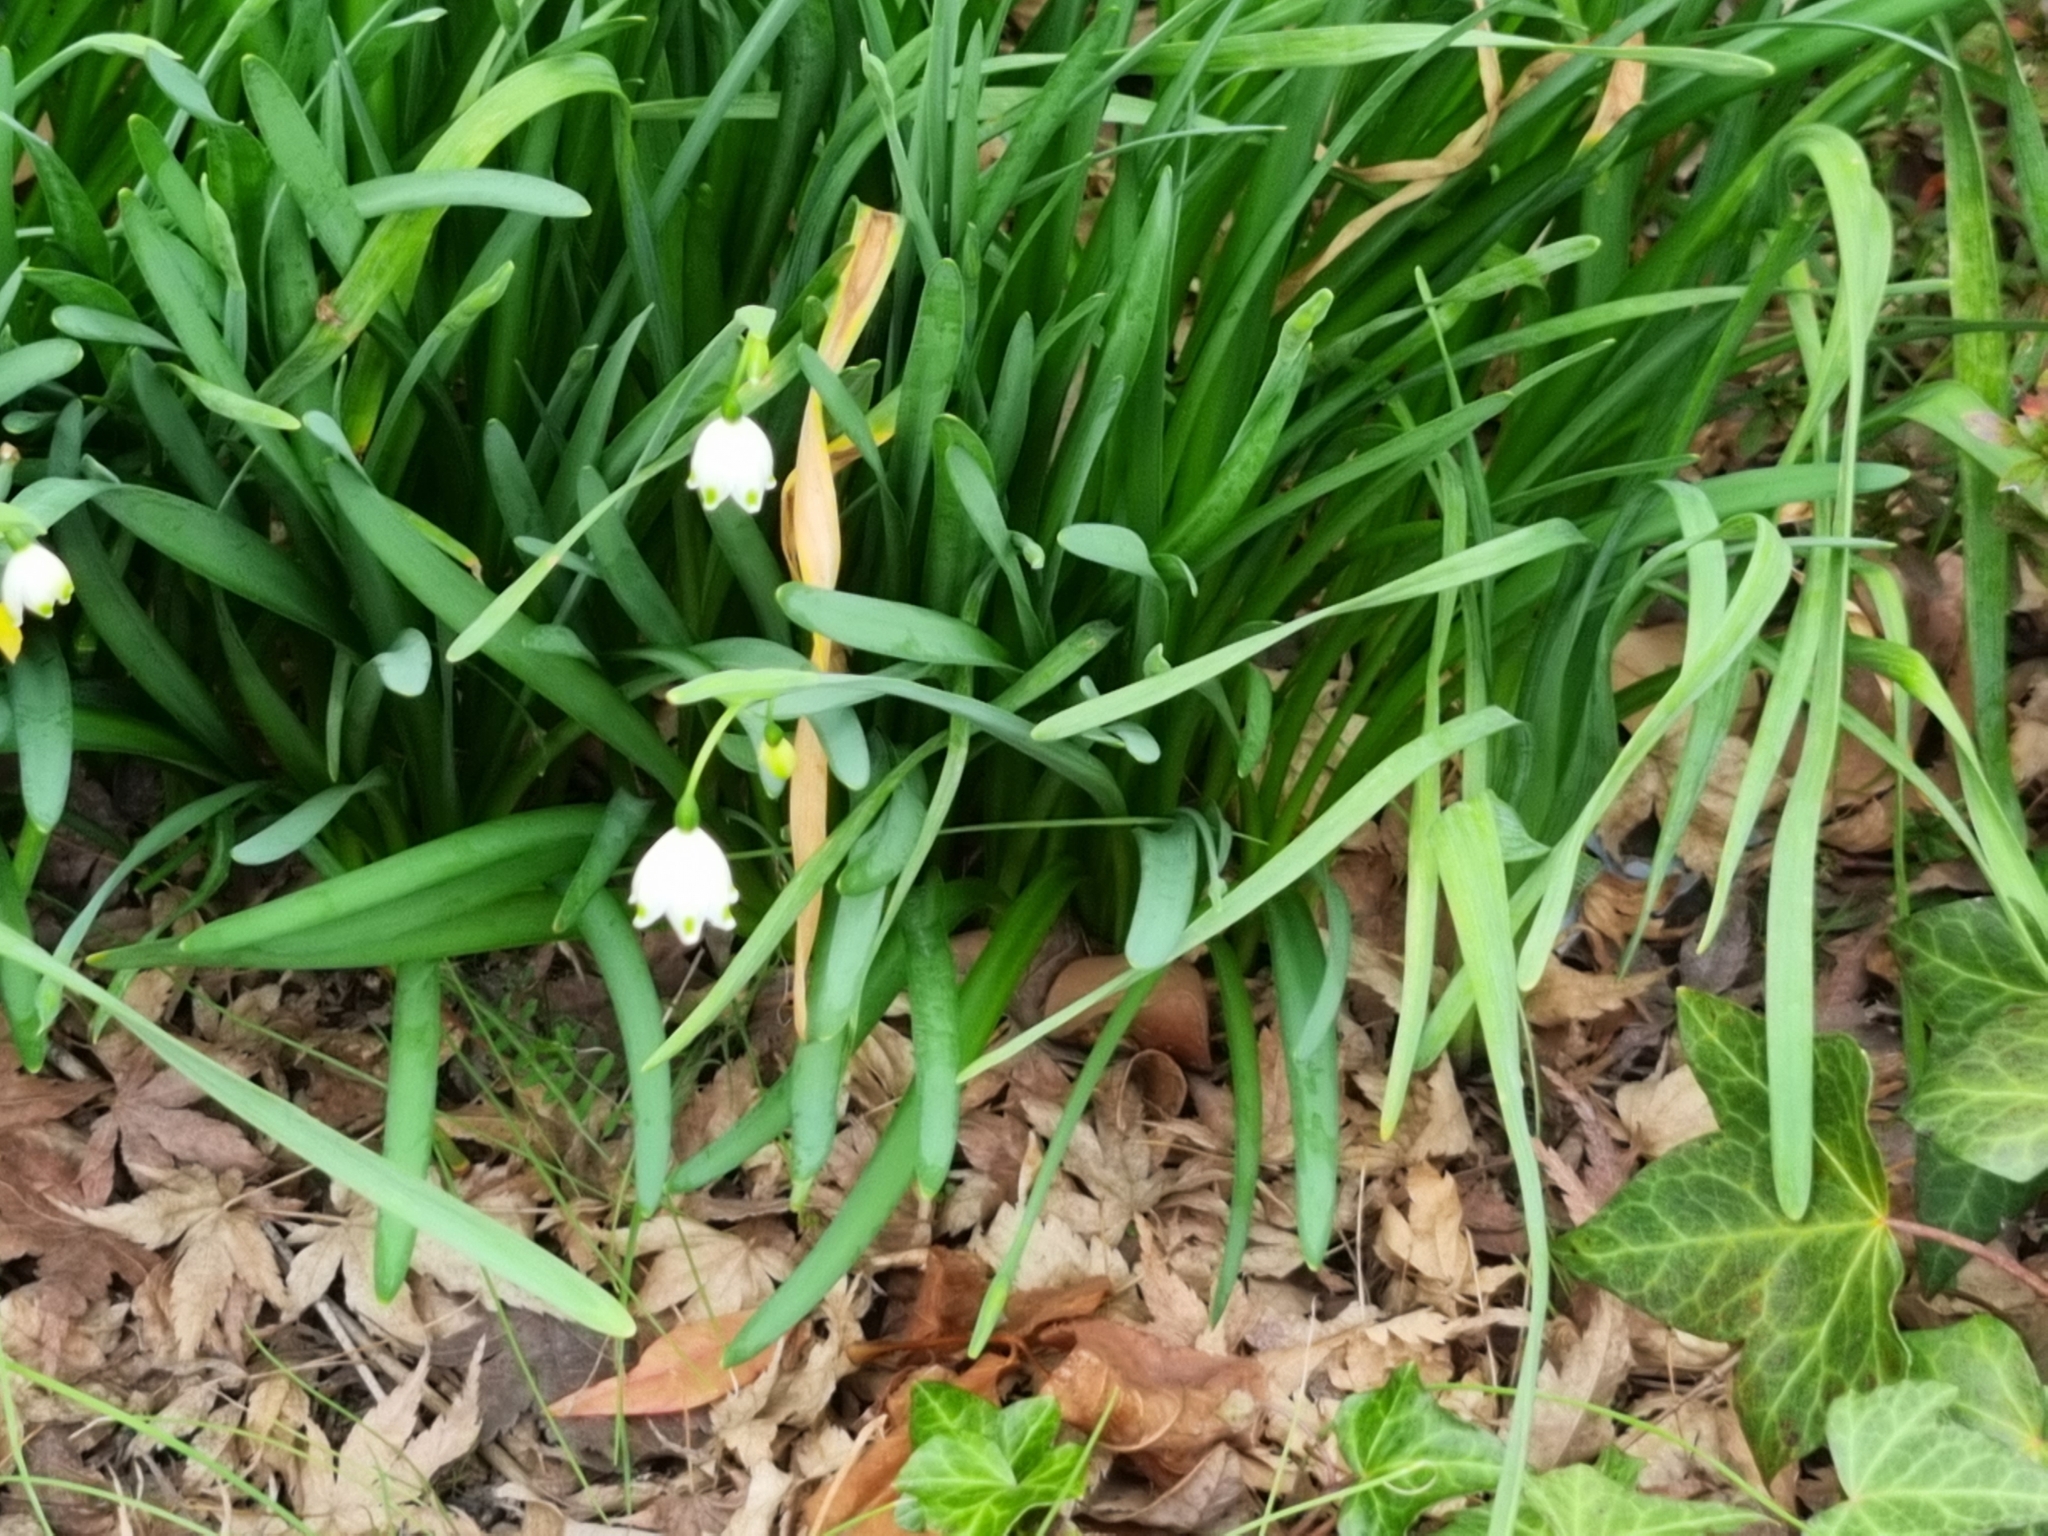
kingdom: Plantae
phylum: Tracheophyta
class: Liliopsida
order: Asparagales
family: Amaryllidaceae
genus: Leucojum
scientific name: Leucojum aestivum
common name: Summer snowflake
